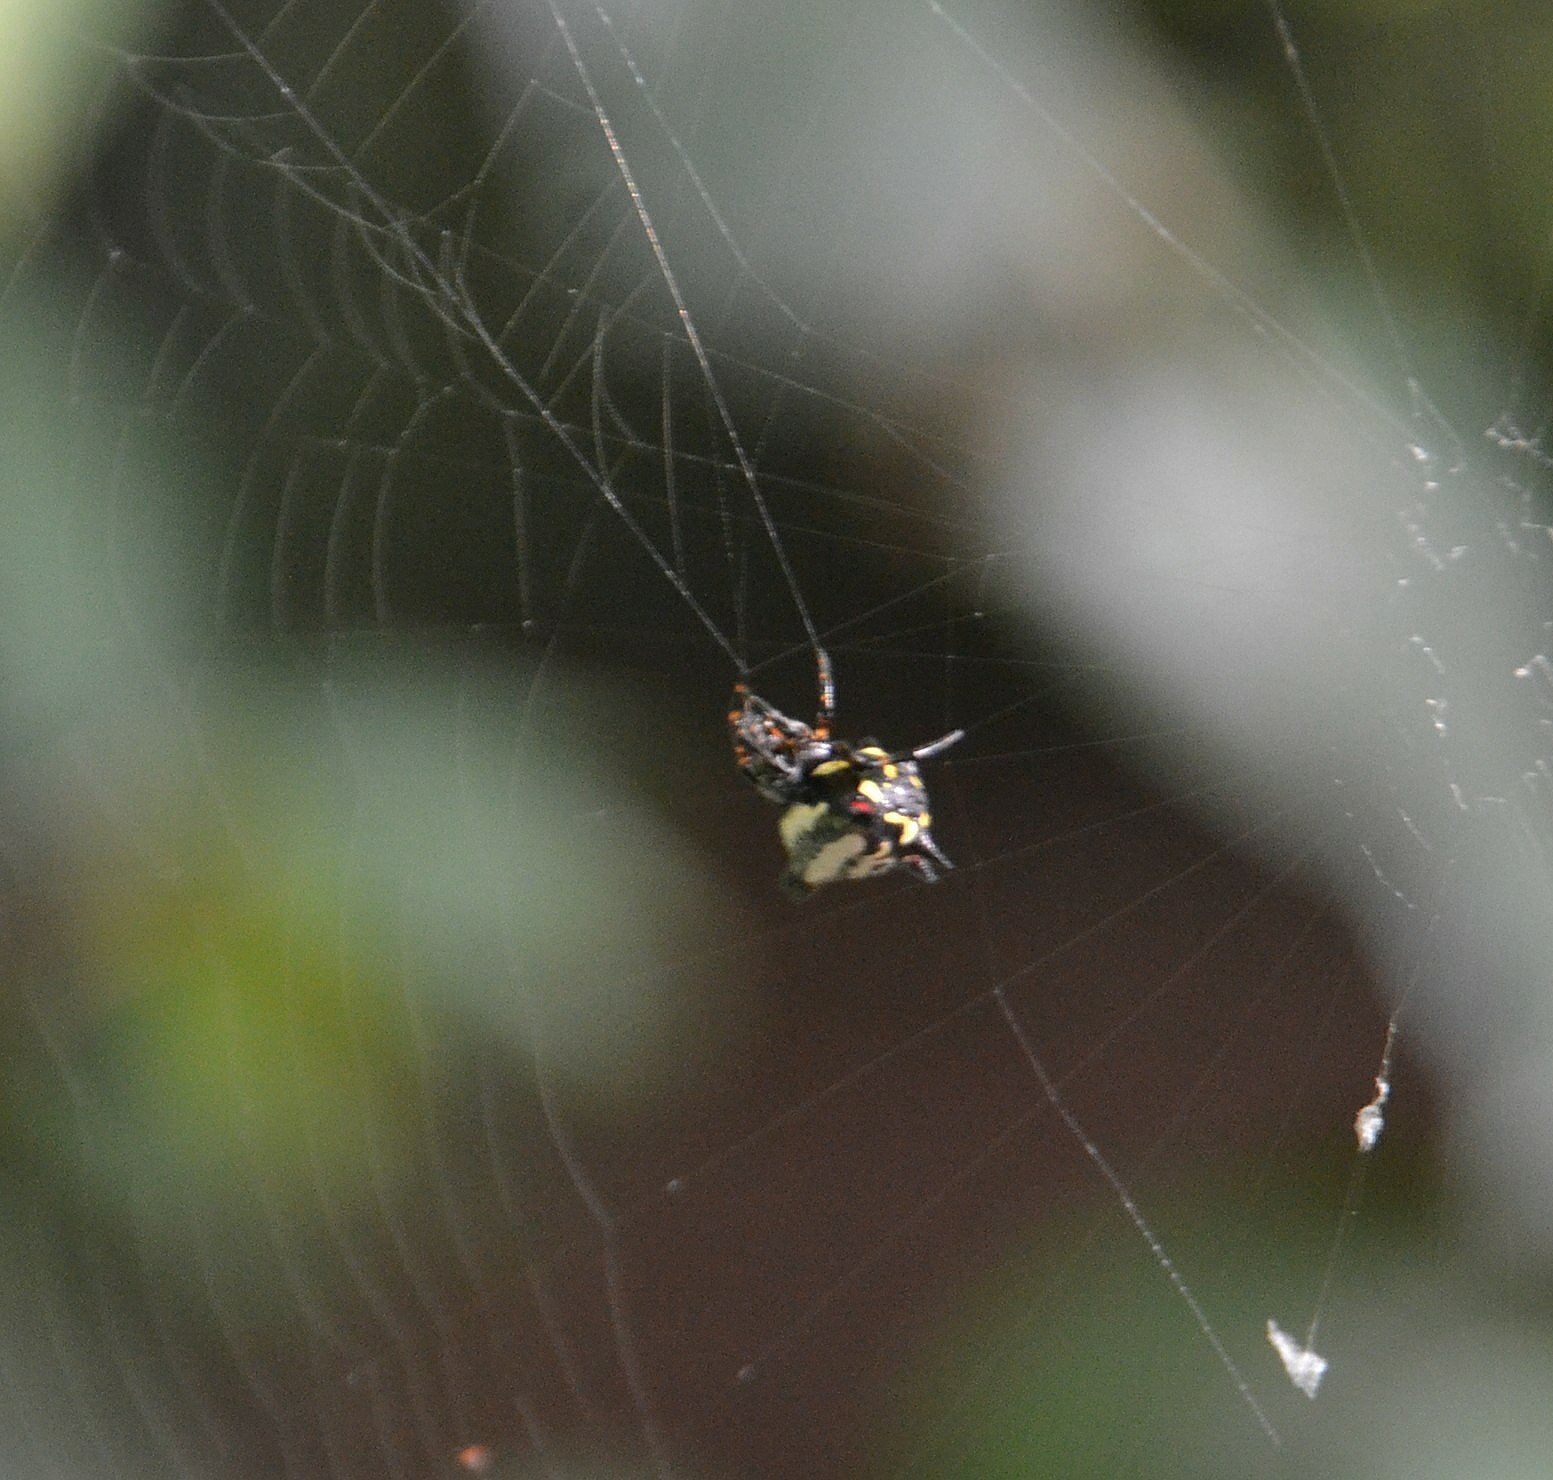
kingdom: Animalia
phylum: Arthropoda
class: Arachnida
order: Araneae
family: Araneidae
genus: Gasteracantha
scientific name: Gasteracantha geminata
